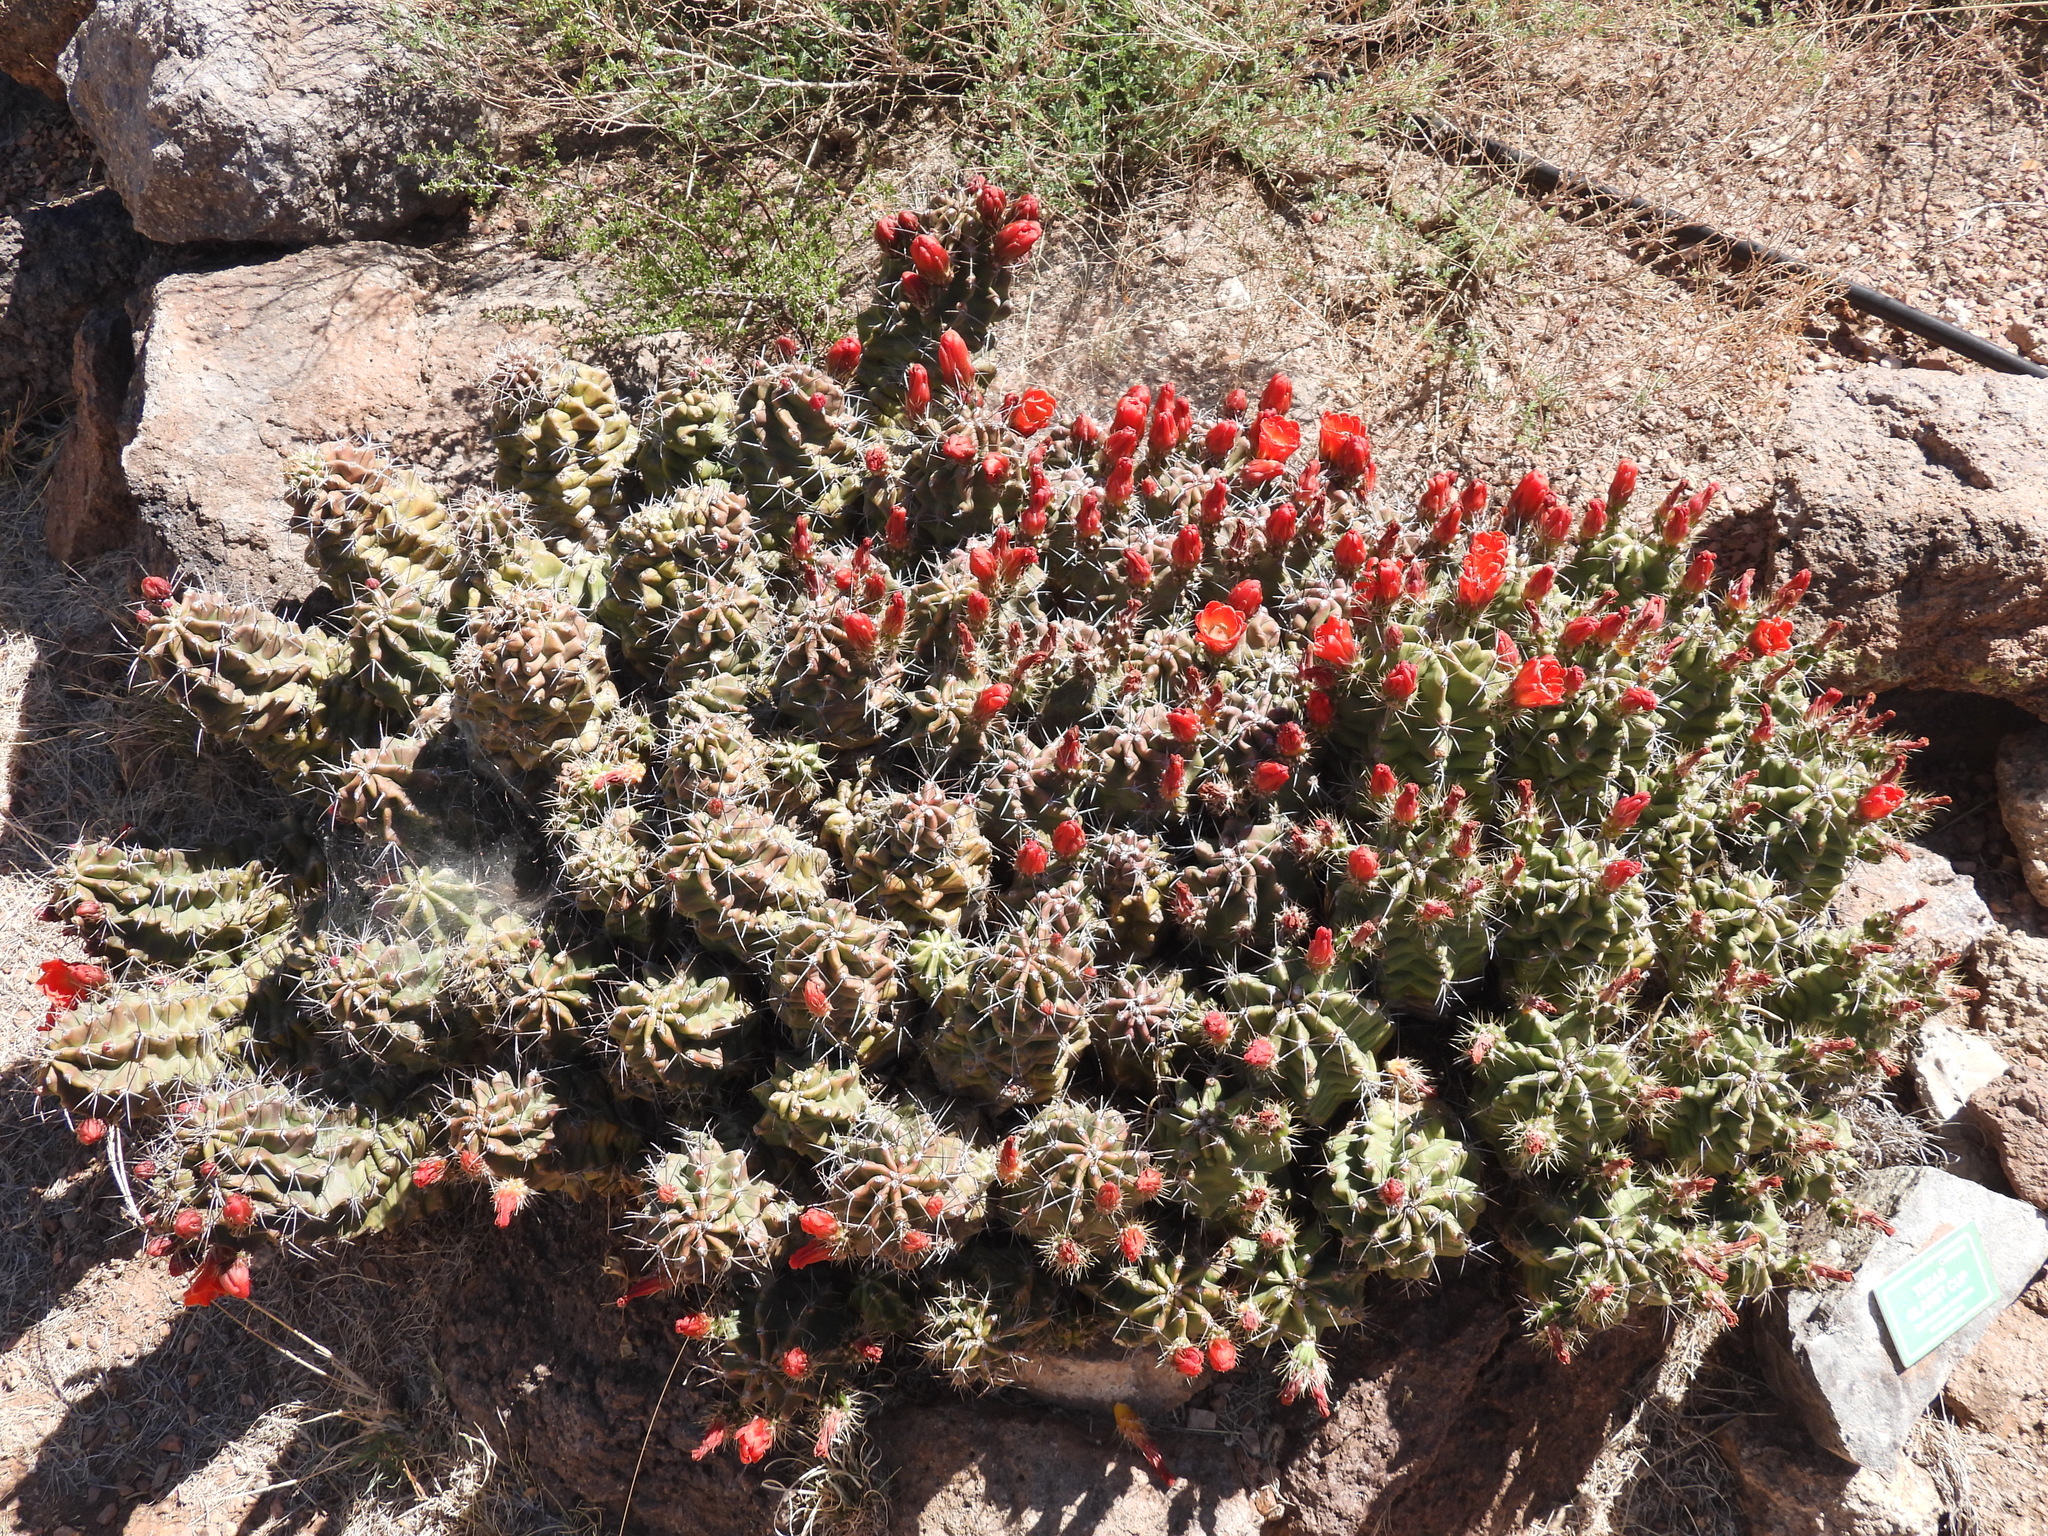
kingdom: Plantae
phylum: Tracheophyta
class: Magnoliopsida
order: Caryophyllales
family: Cactaceae
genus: Echinocereus
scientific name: Echinocereus coccineus
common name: Scarlet hedgehog cactus
